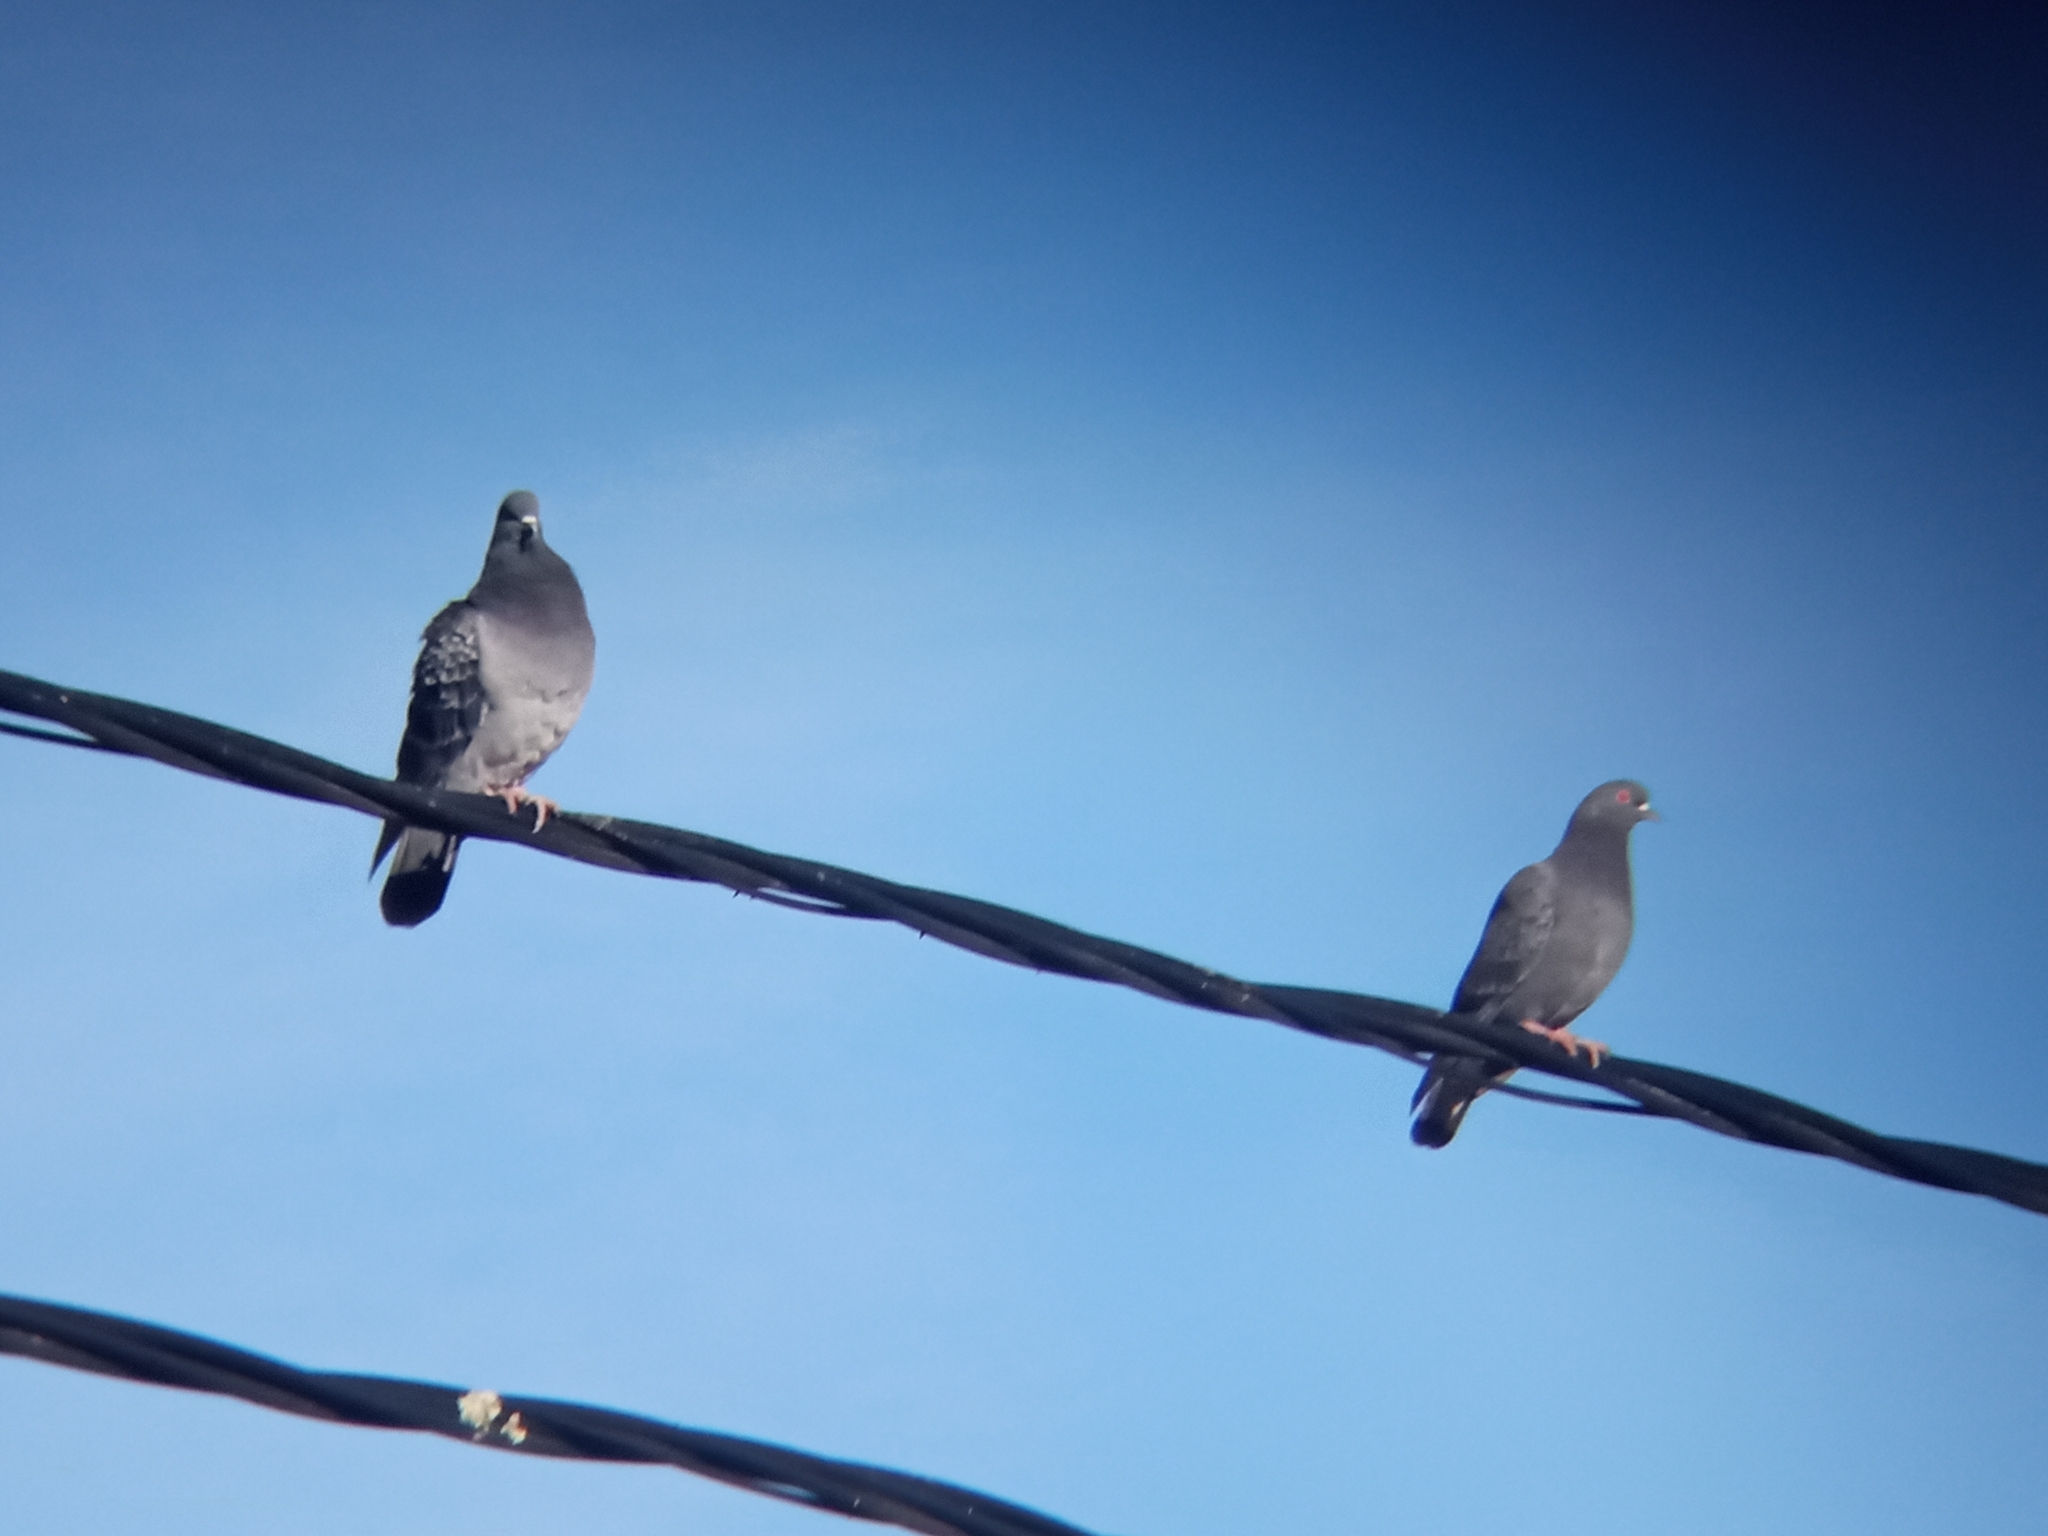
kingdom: Animalia
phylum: Chordata
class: Aves
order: Columbiformes
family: Columbidae
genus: Columba
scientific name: Columba livia
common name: Rock pigeon
